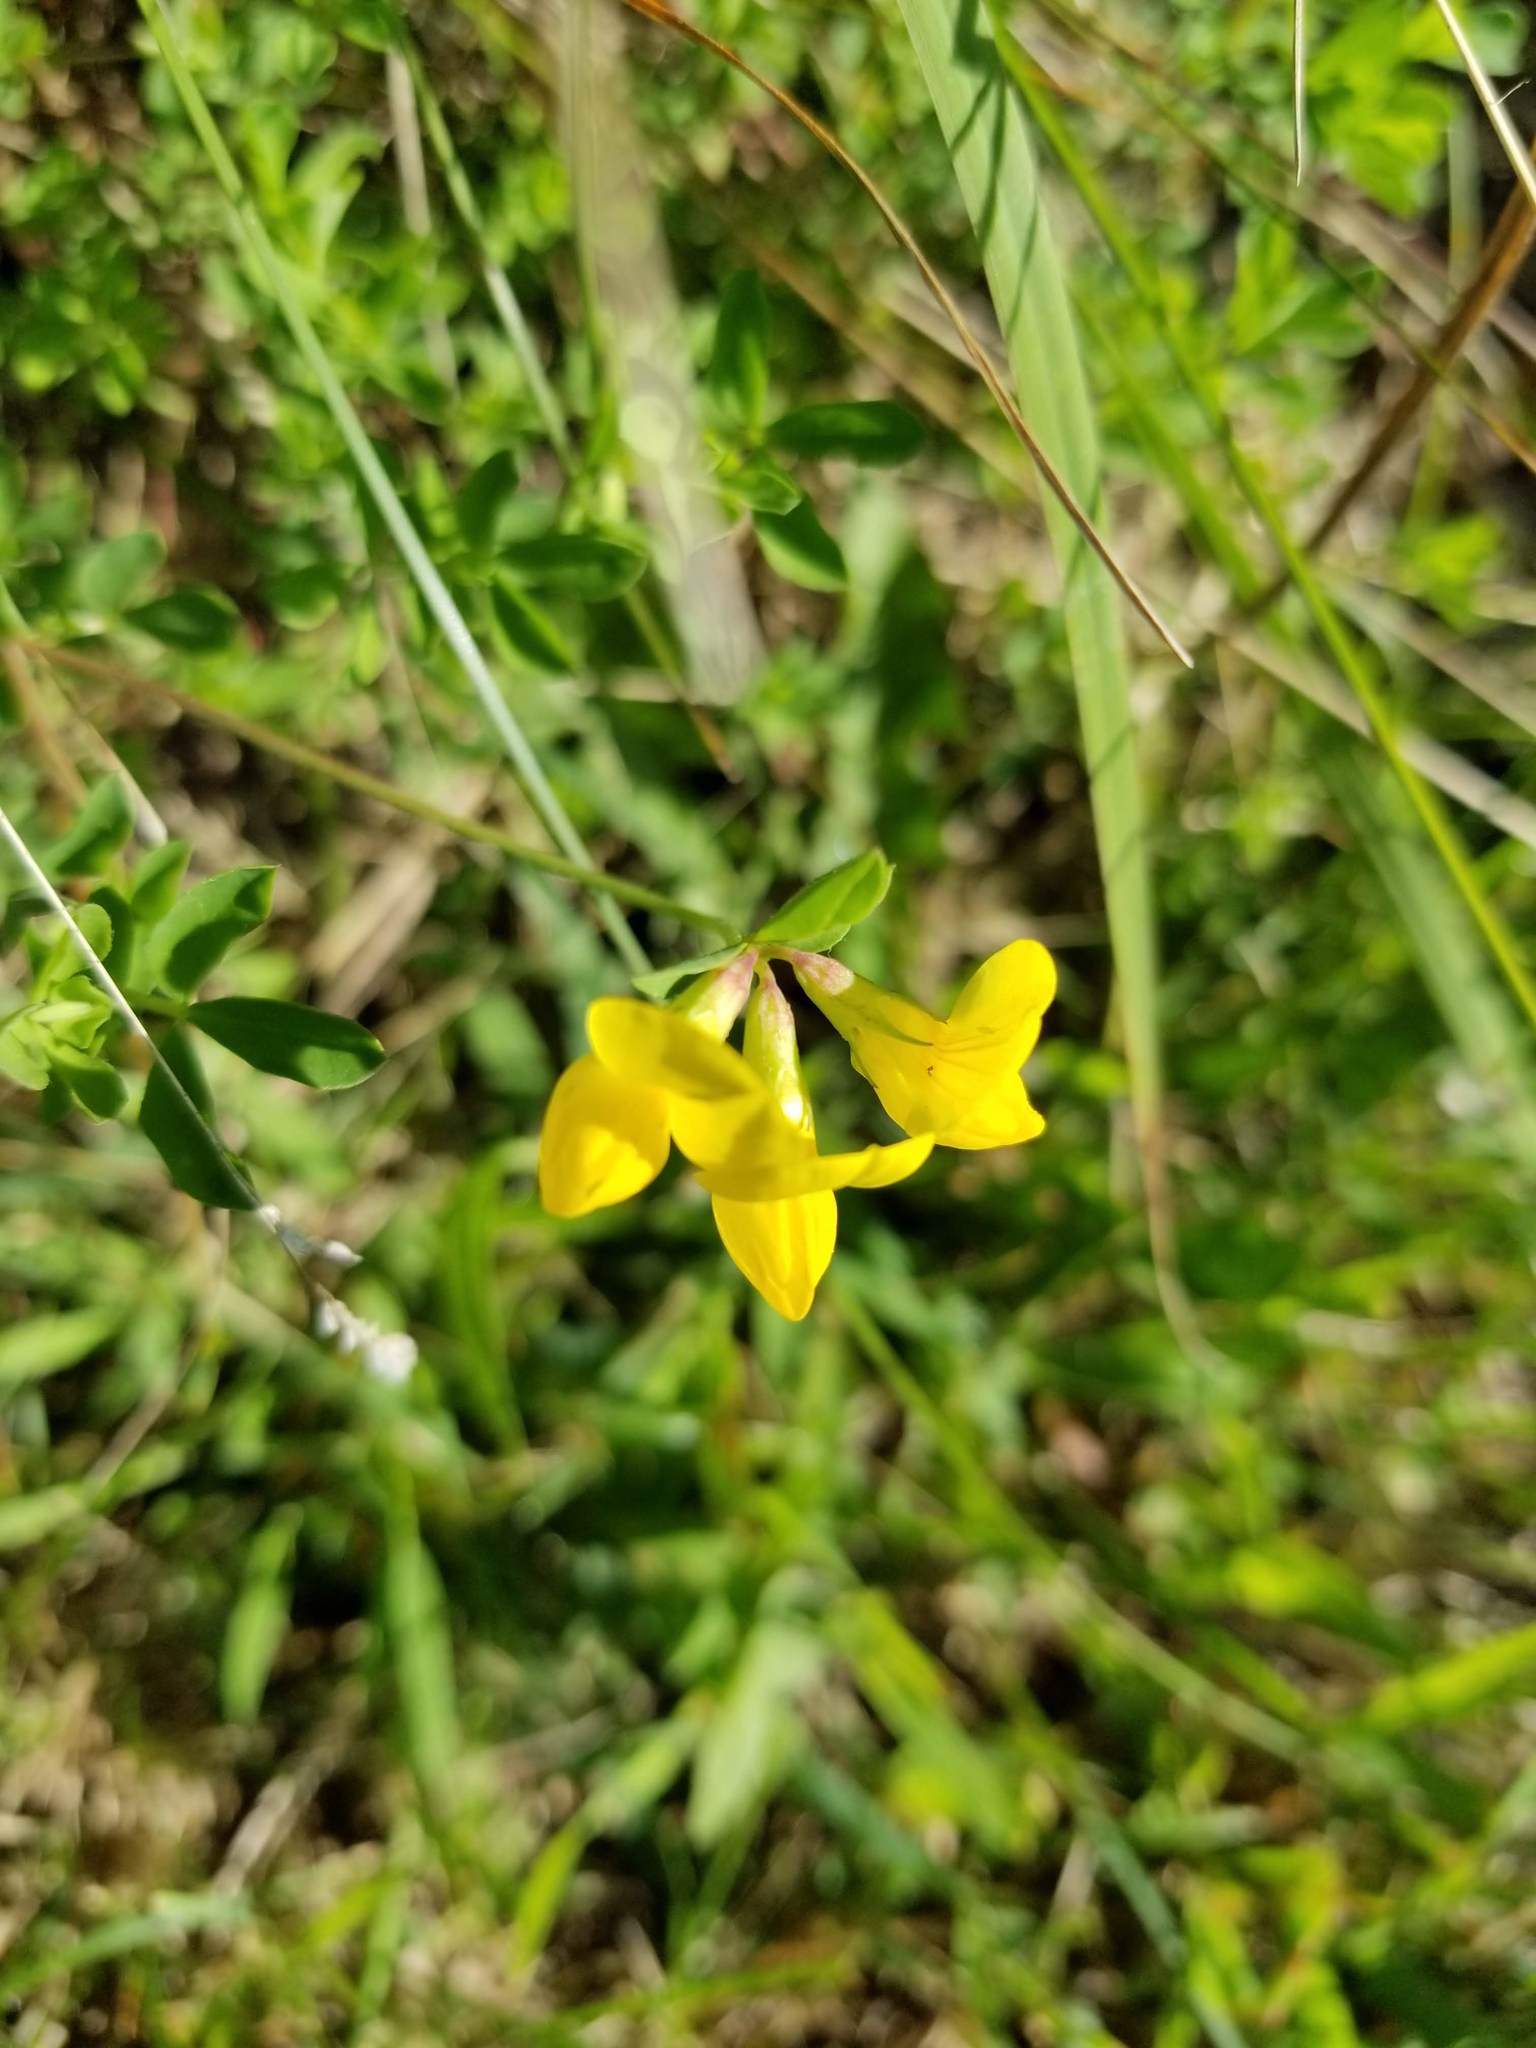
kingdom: Plantae
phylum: Tracheophyta
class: Magnoliopsida
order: Fabales
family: Fabaceae
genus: Lotus
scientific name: Lotus corniculatus
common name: Common bird's-foot-trefoil
